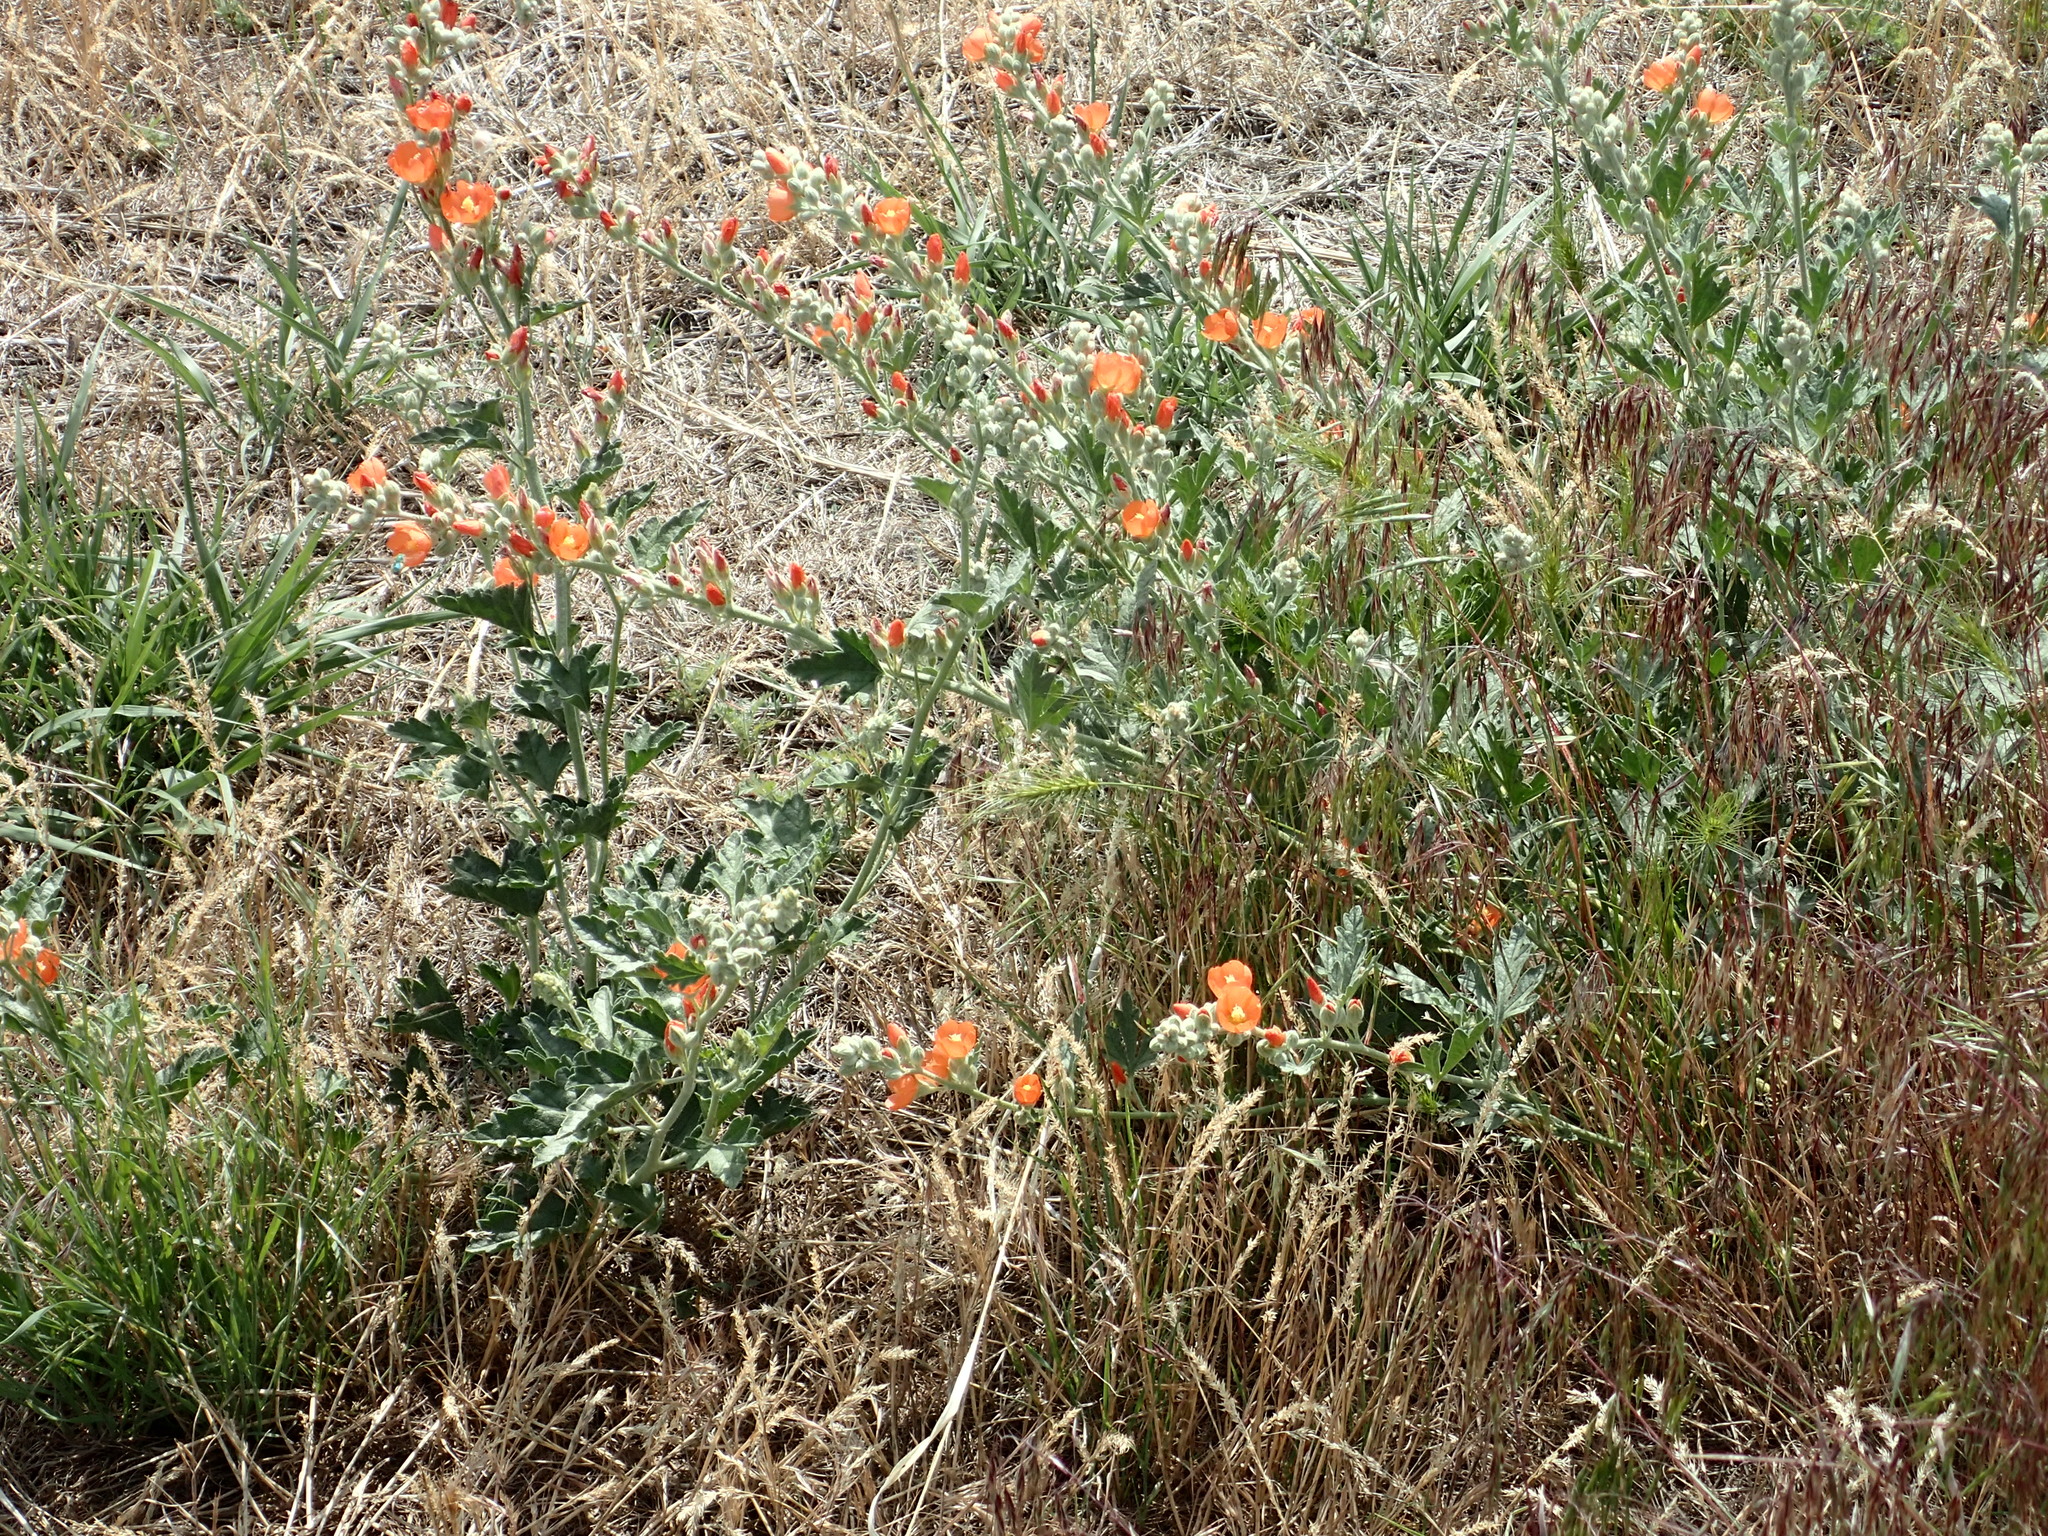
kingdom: Plantae
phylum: Tracheophyta
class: Magnoliopsida
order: Malvales
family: Malvaceae
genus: Sphaeralcea
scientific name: Sphaeralcea munroana
